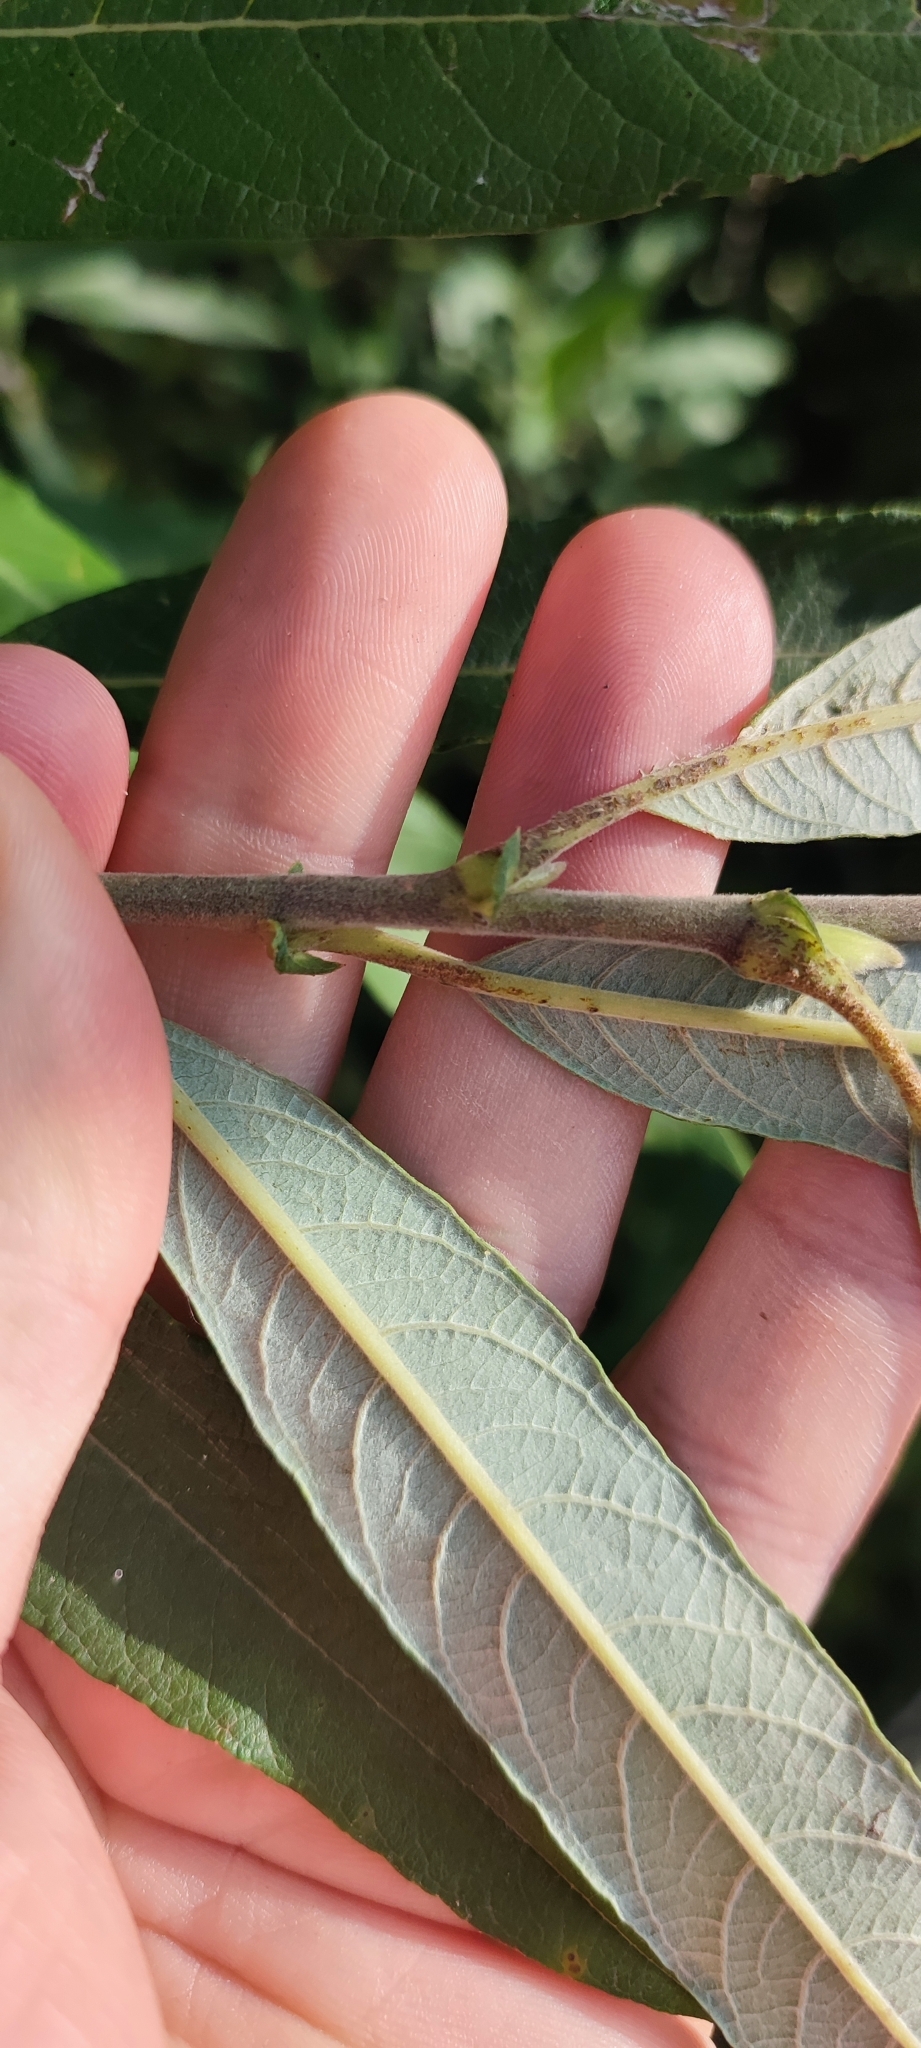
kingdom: Plantae
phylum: Tracheophyta
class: Magnoliopsida
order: Malpighiales
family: Salicaceae
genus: Salix
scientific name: Salix gmelinii
